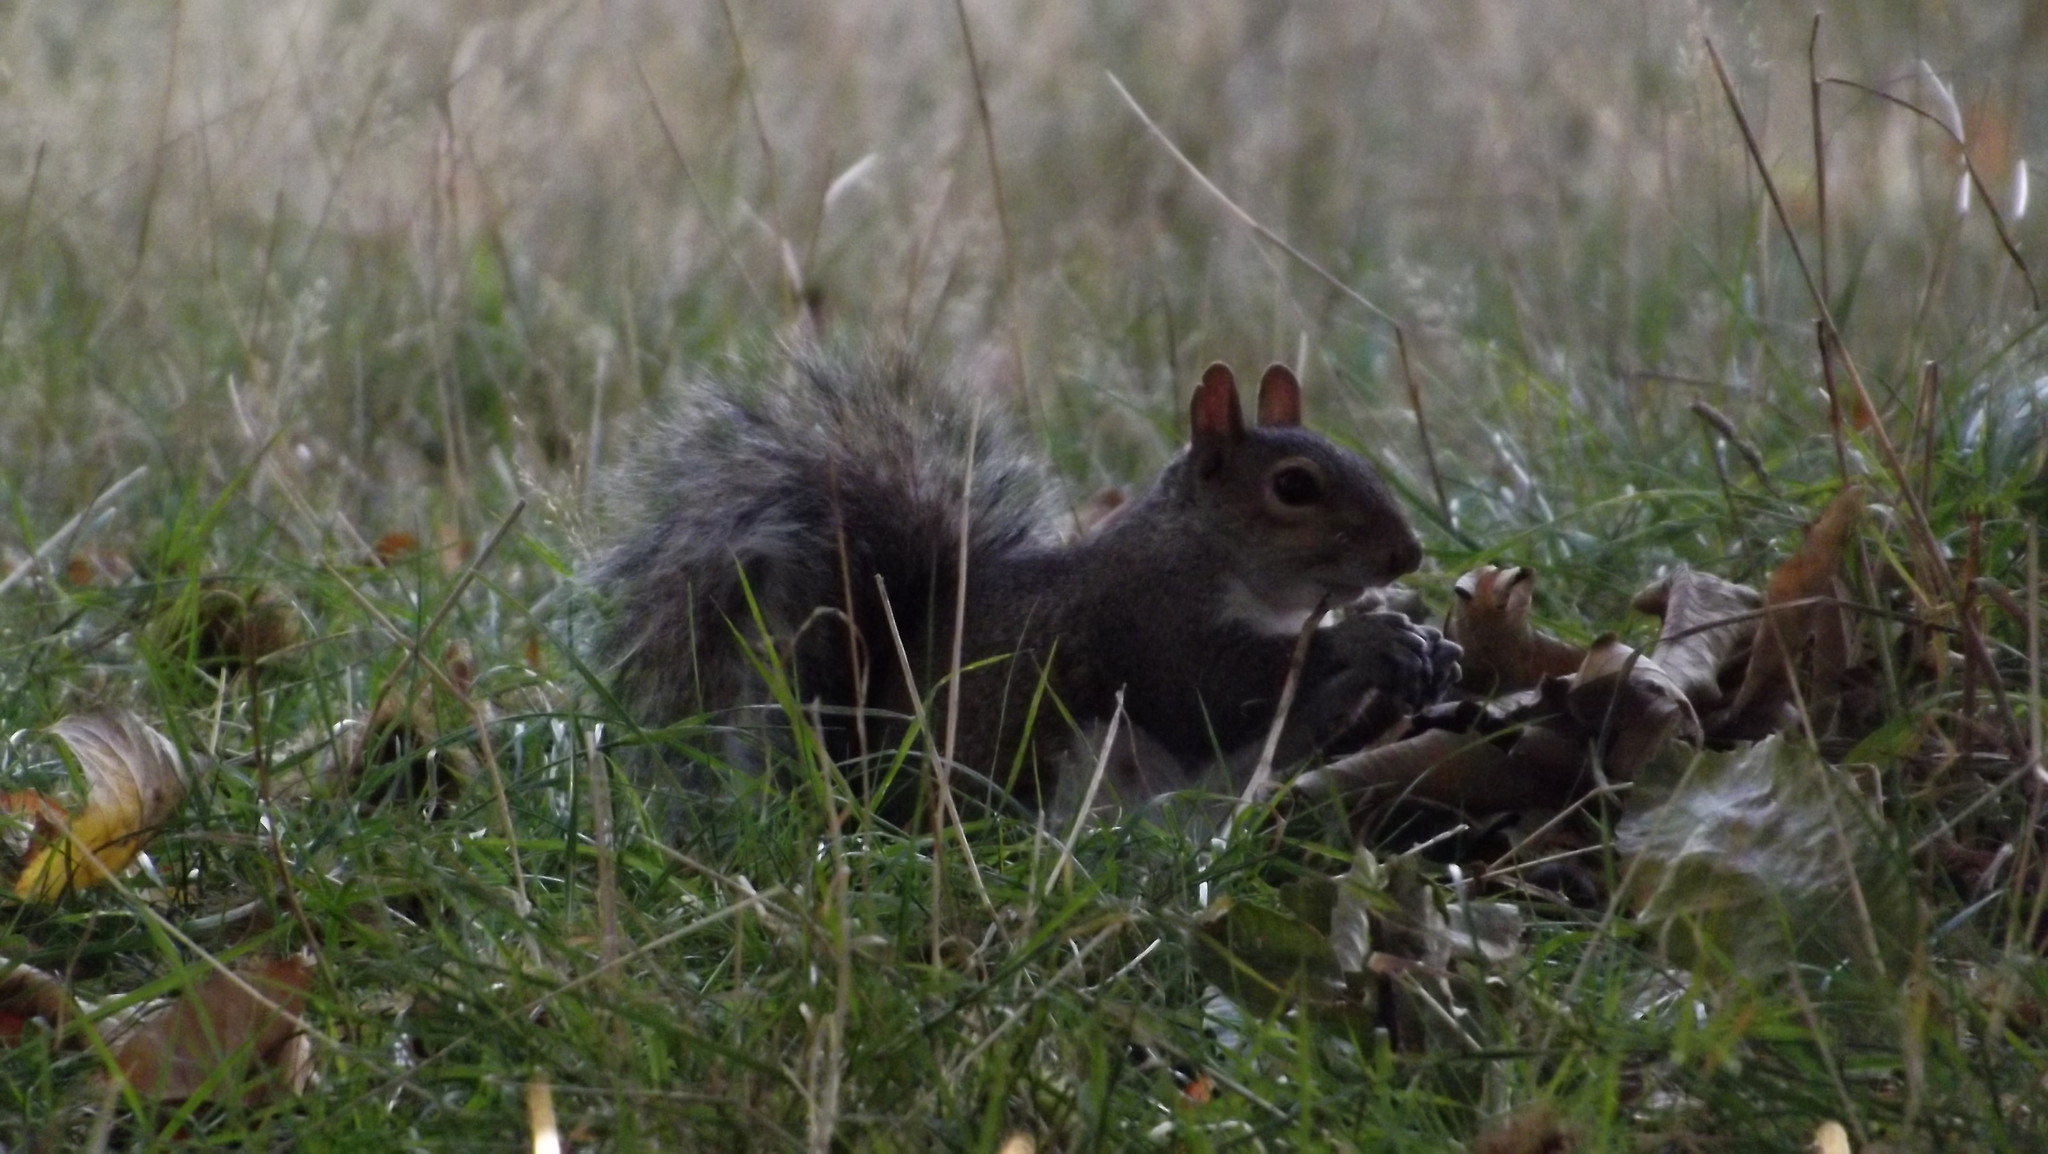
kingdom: Animalia
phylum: Chordata
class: Mammalia
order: Rodentia
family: Sciuridae
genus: Sciurus
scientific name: Sciurus carolinensis
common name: Eastern gray squirrel
